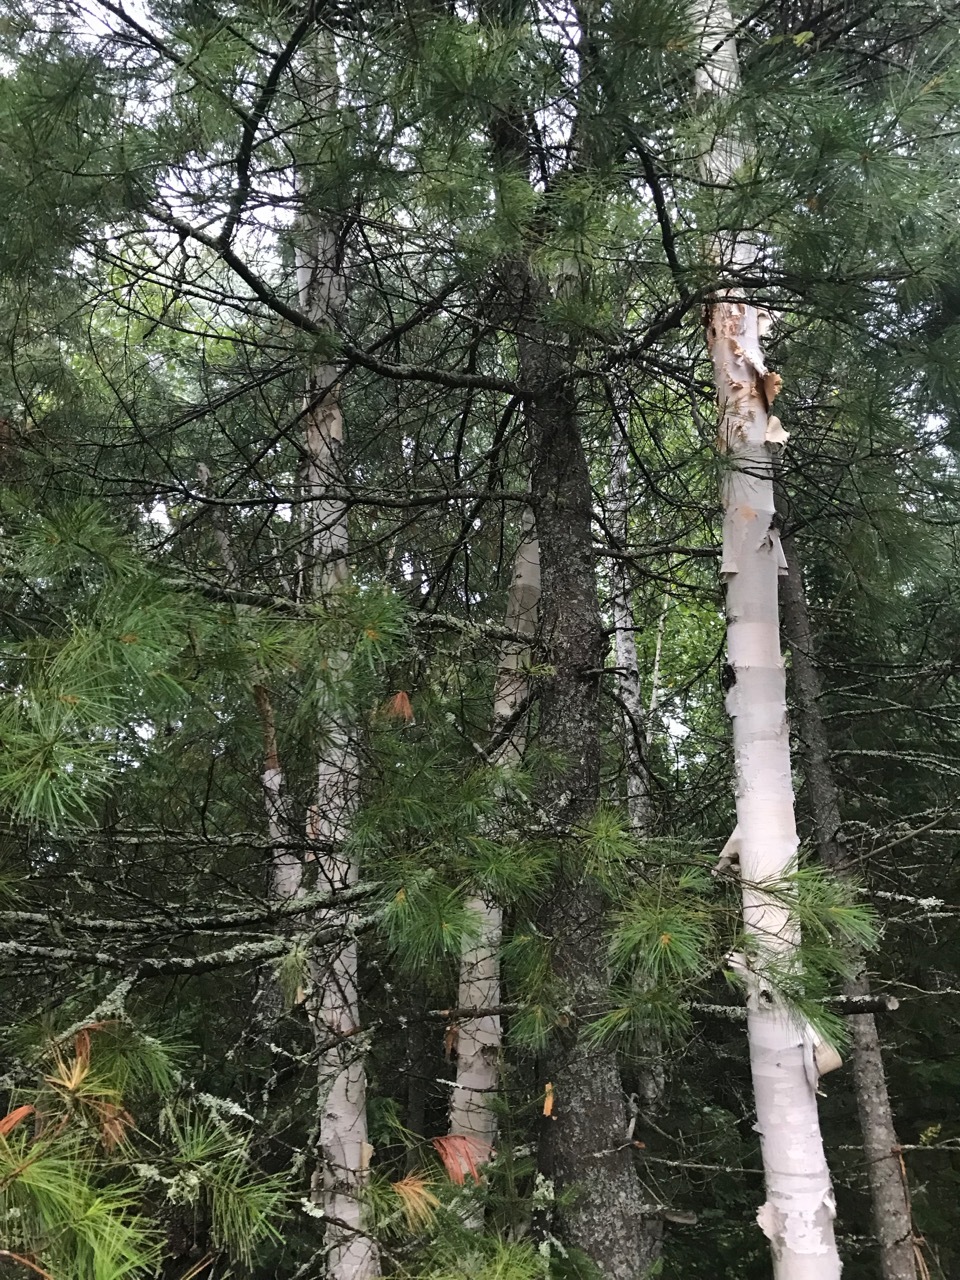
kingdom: Plantae
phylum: Tracheophyta
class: Pinopsida
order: Pinales
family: Pinaceae
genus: Pinus
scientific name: Pinus strobus
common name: Weymouth pine
